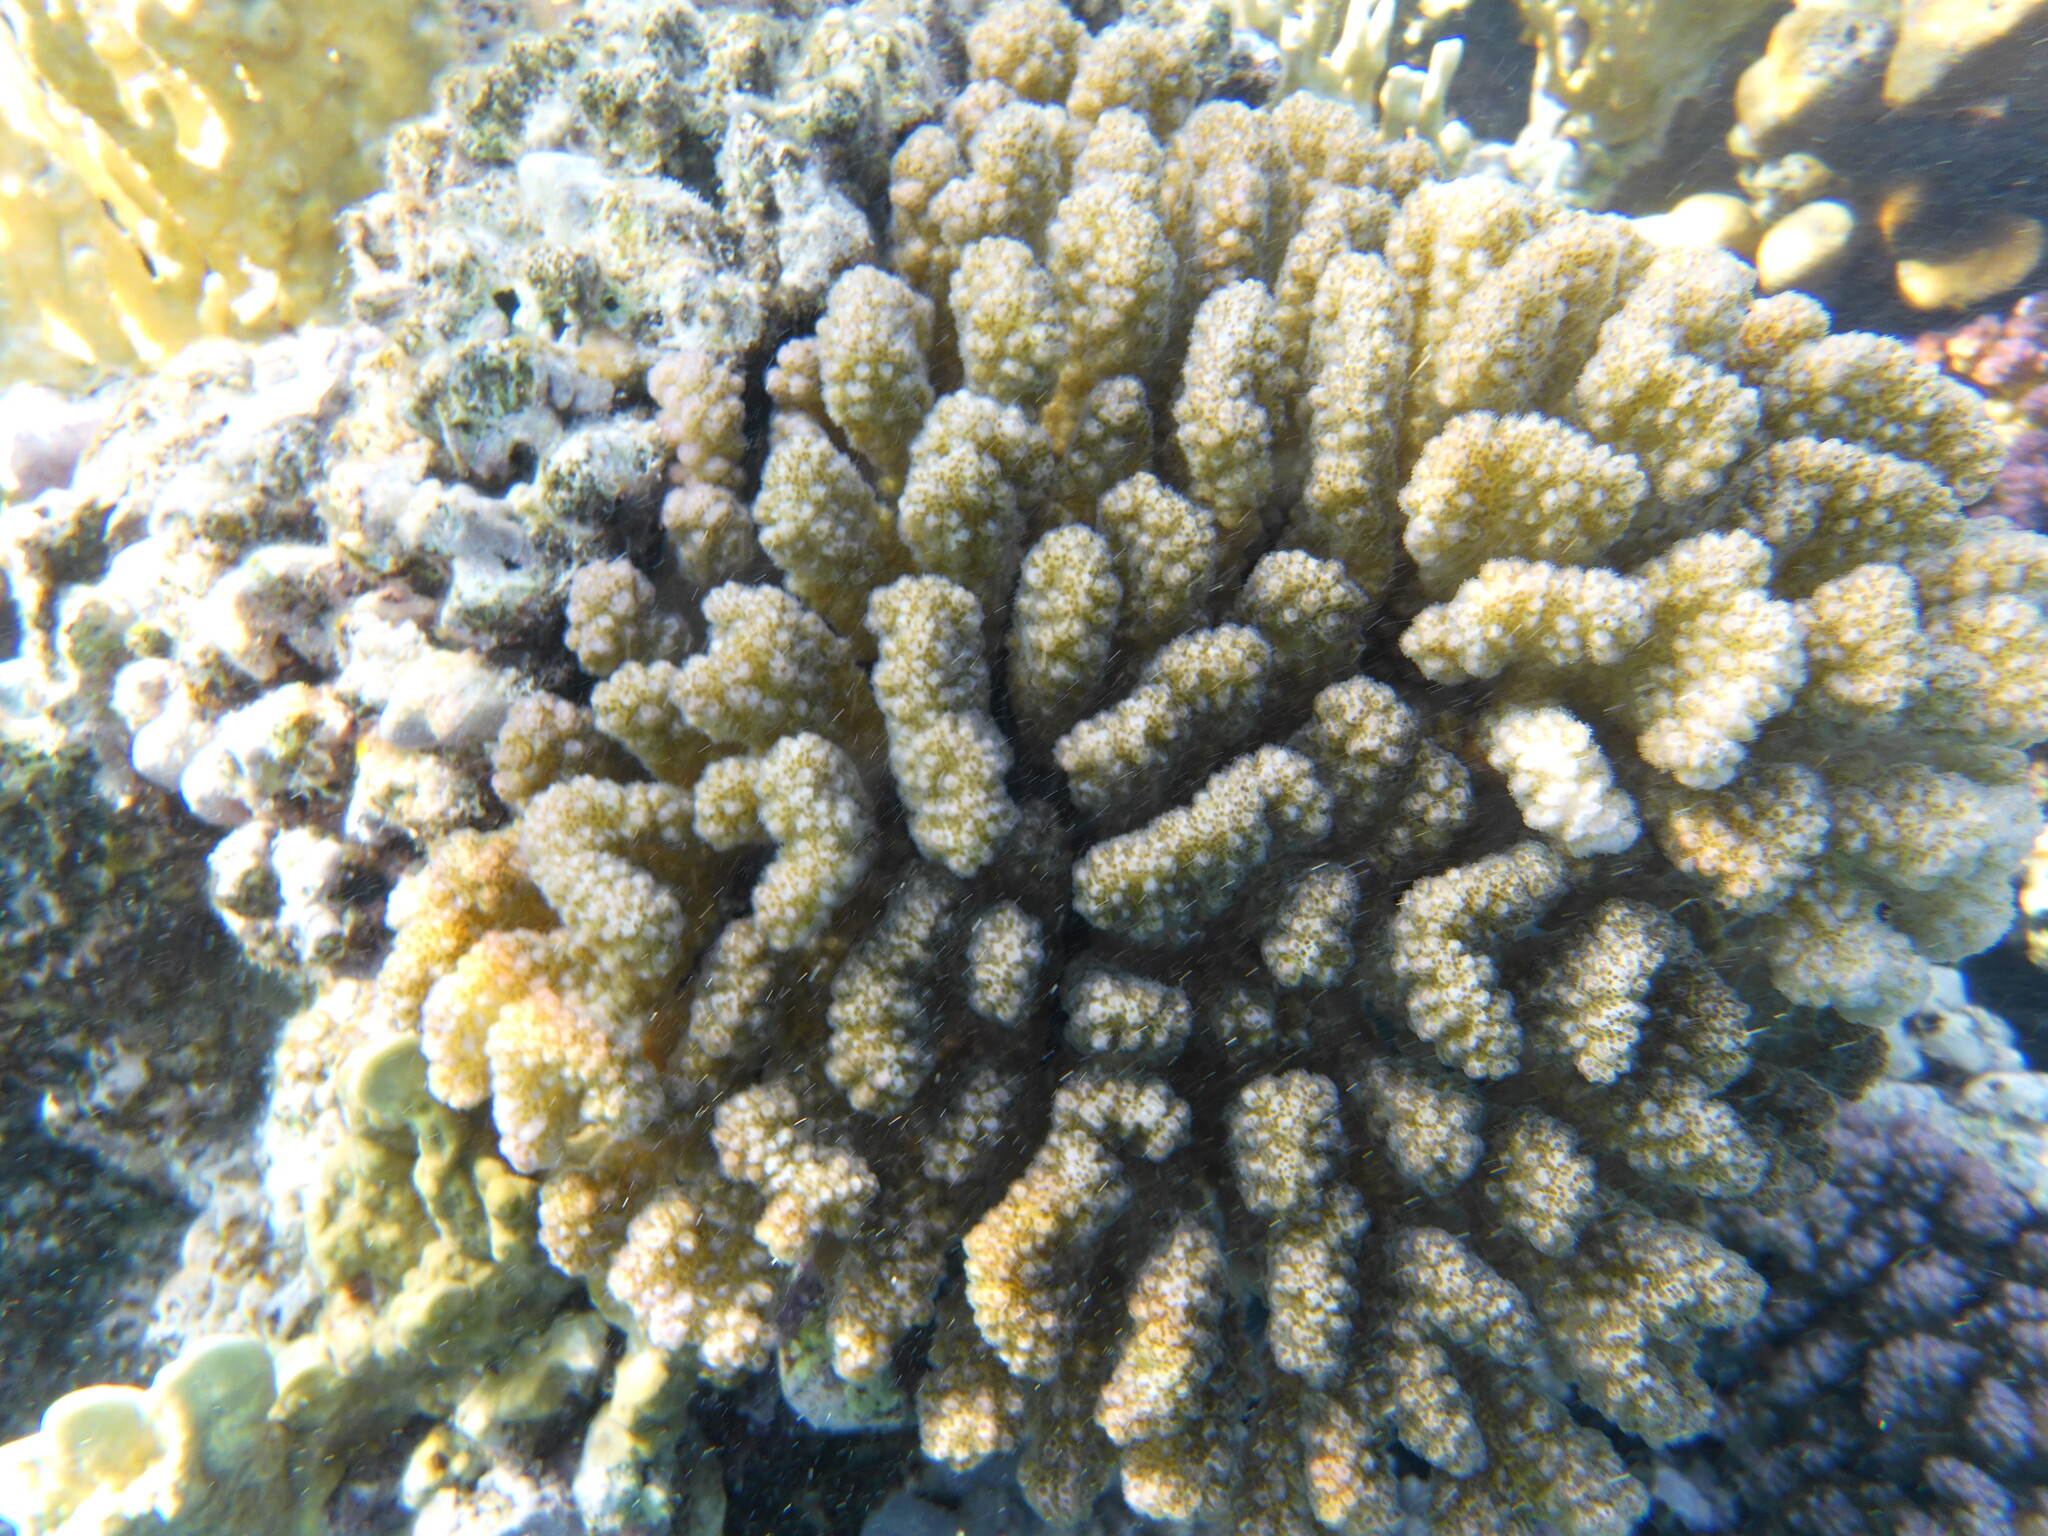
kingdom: Animalia
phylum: Cnidaria
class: Anthozoa
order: Scleractinia
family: Pocilloporidae
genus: Pocillopora
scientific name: Pocillopora verrucosa
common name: Cauliflower coral
